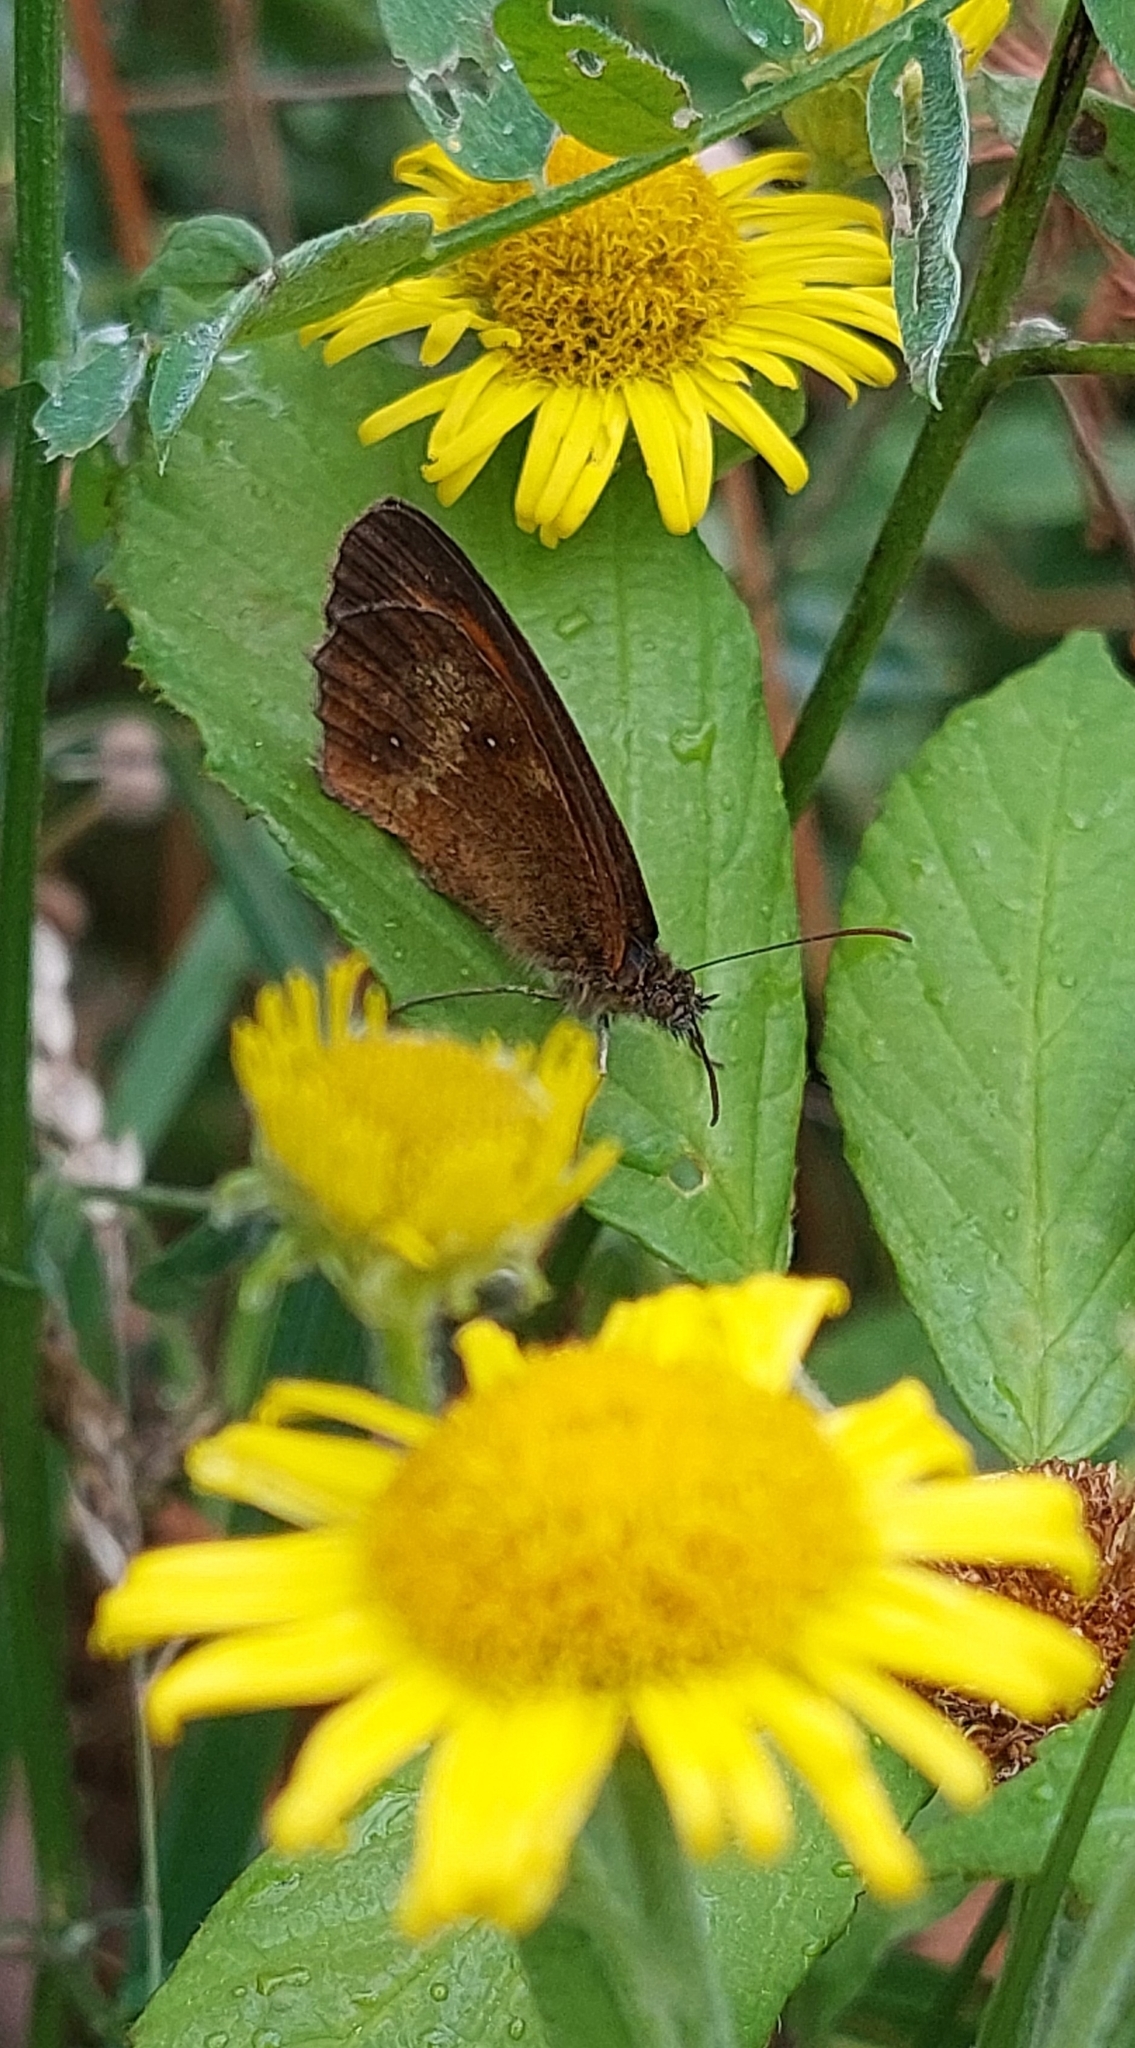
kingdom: Animalia
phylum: Arthropoda
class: Insecta
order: Lepidoptera
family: Nymphalidae
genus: Pyronia
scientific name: Pyronia tithonus
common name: Gatekeeper
